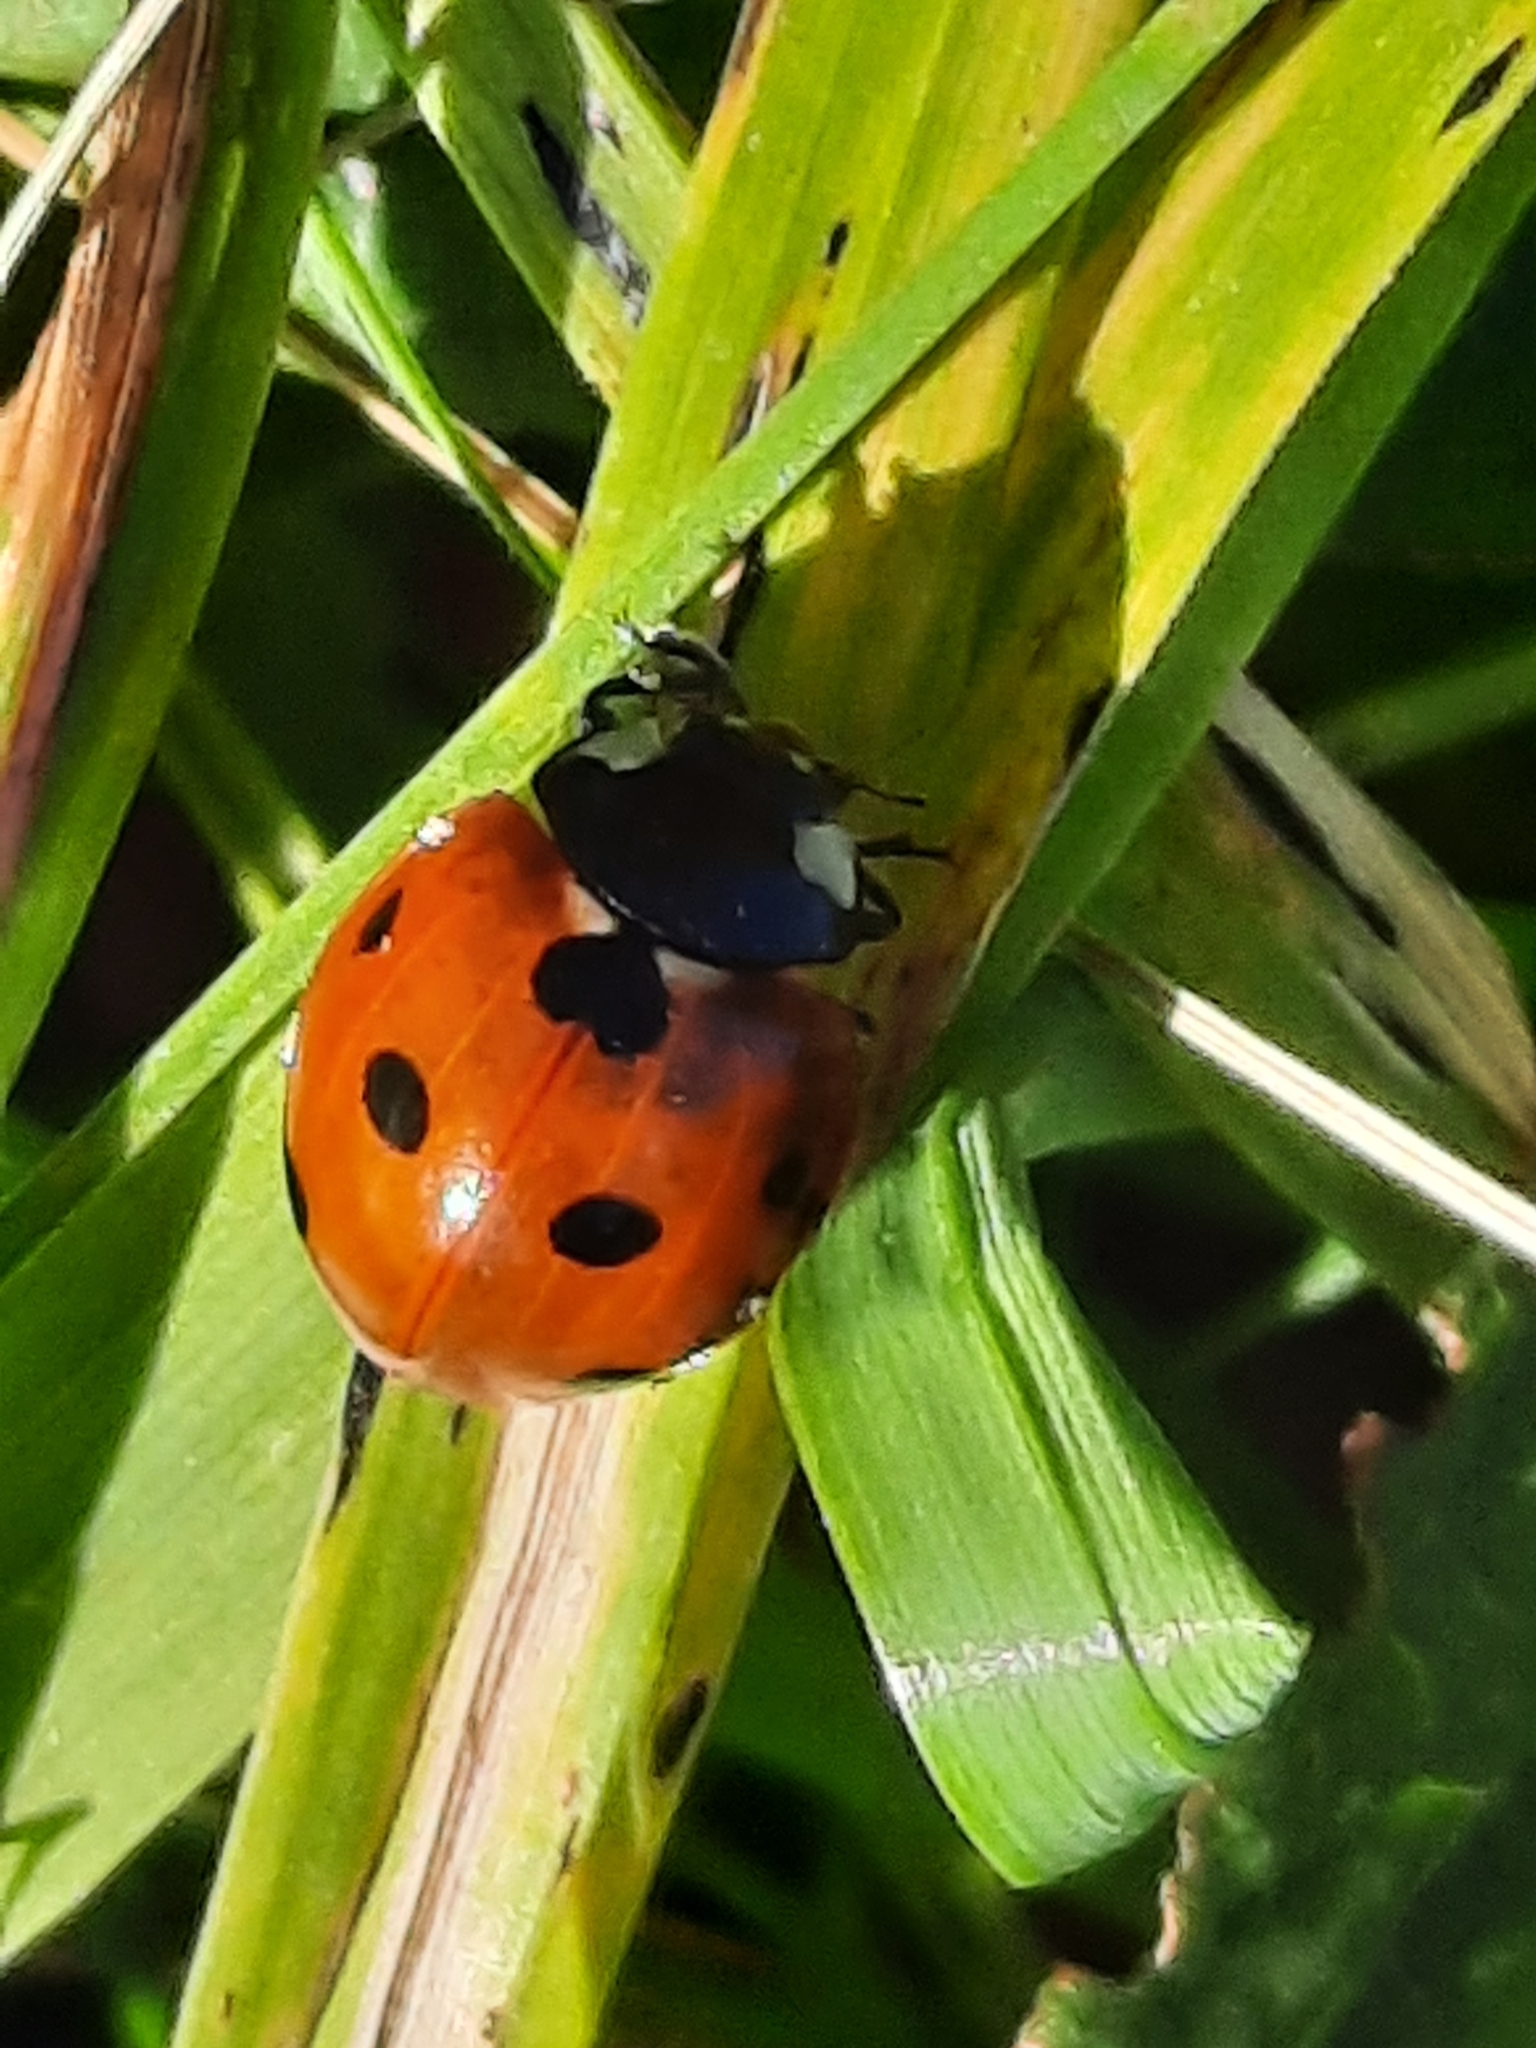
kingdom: Animalia
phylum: Arthropoda
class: Insecta
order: Coleoptera
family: Coccinellidae
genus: Coccinella
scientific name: Coccinella septempunctata
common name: Sevenspotted lady beetle
